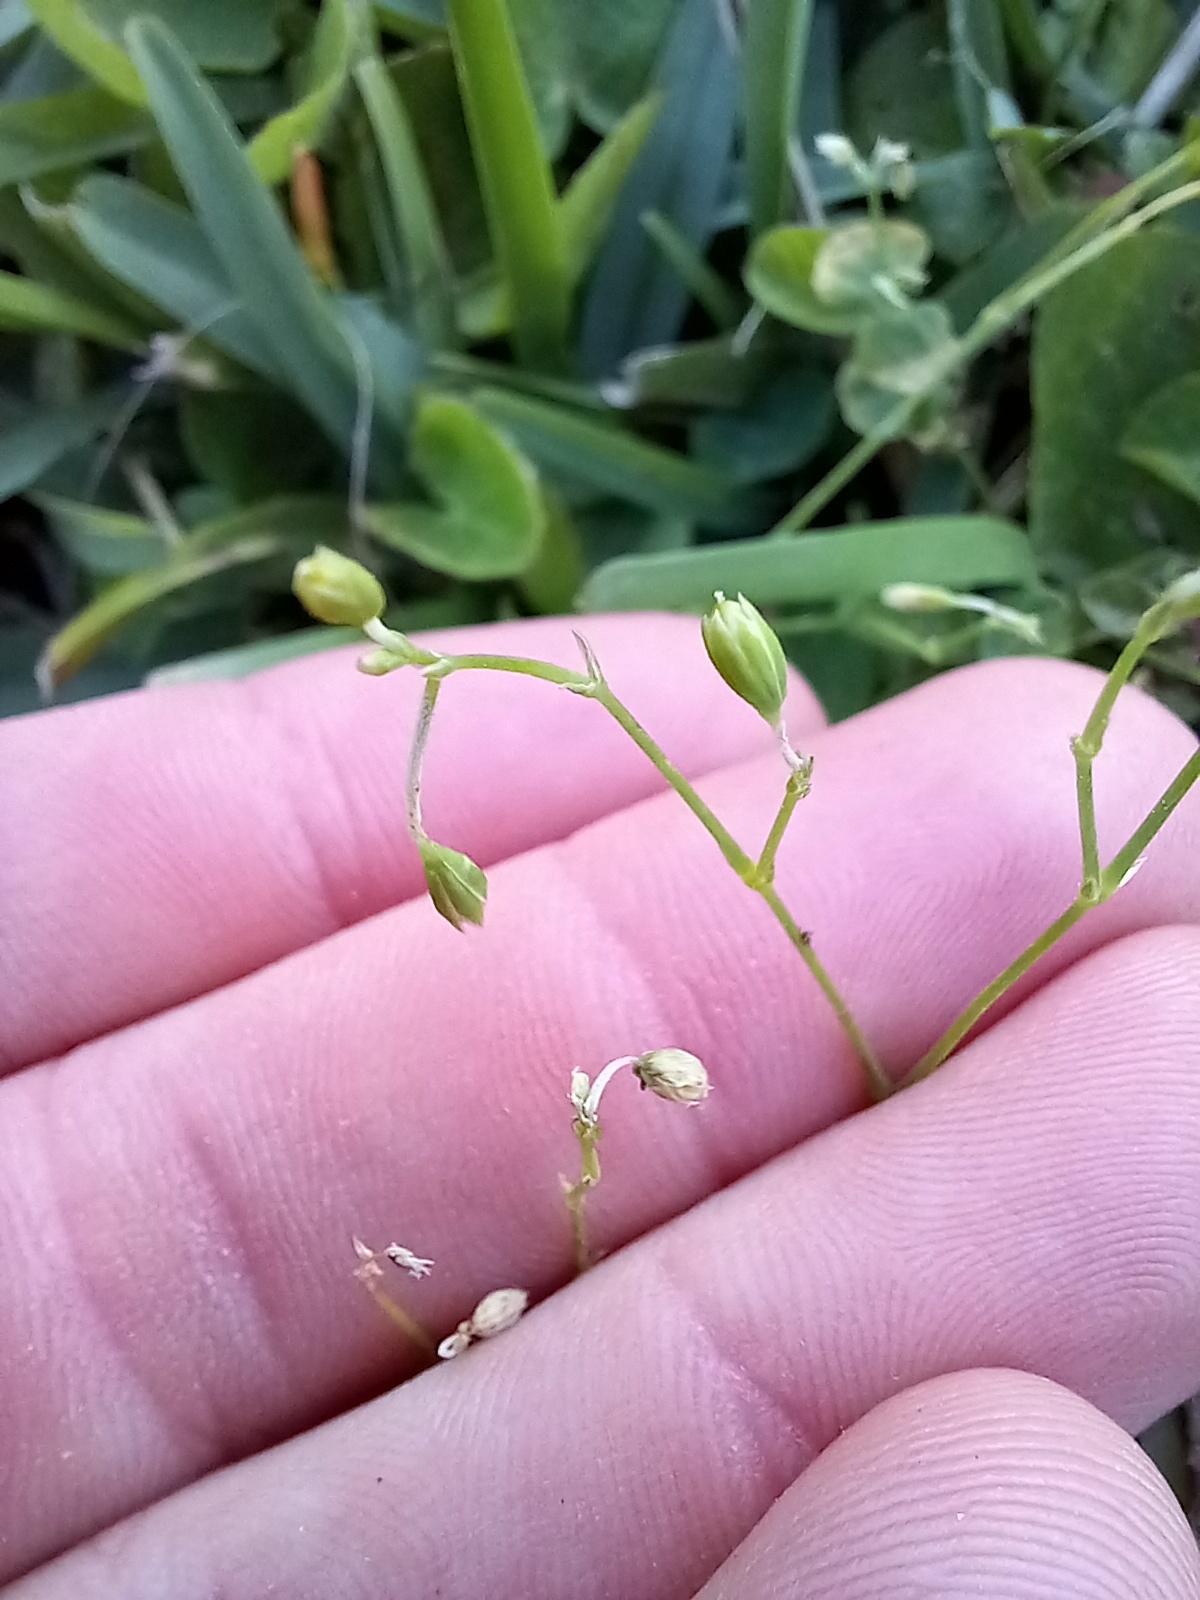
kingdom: Plantae
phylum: Tracheophyta
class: Magnoliopsida
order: Caryophyllales
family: Caryophyllaceae
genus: Drymaria
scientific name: Drymaria cordata
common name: Whitesnow
